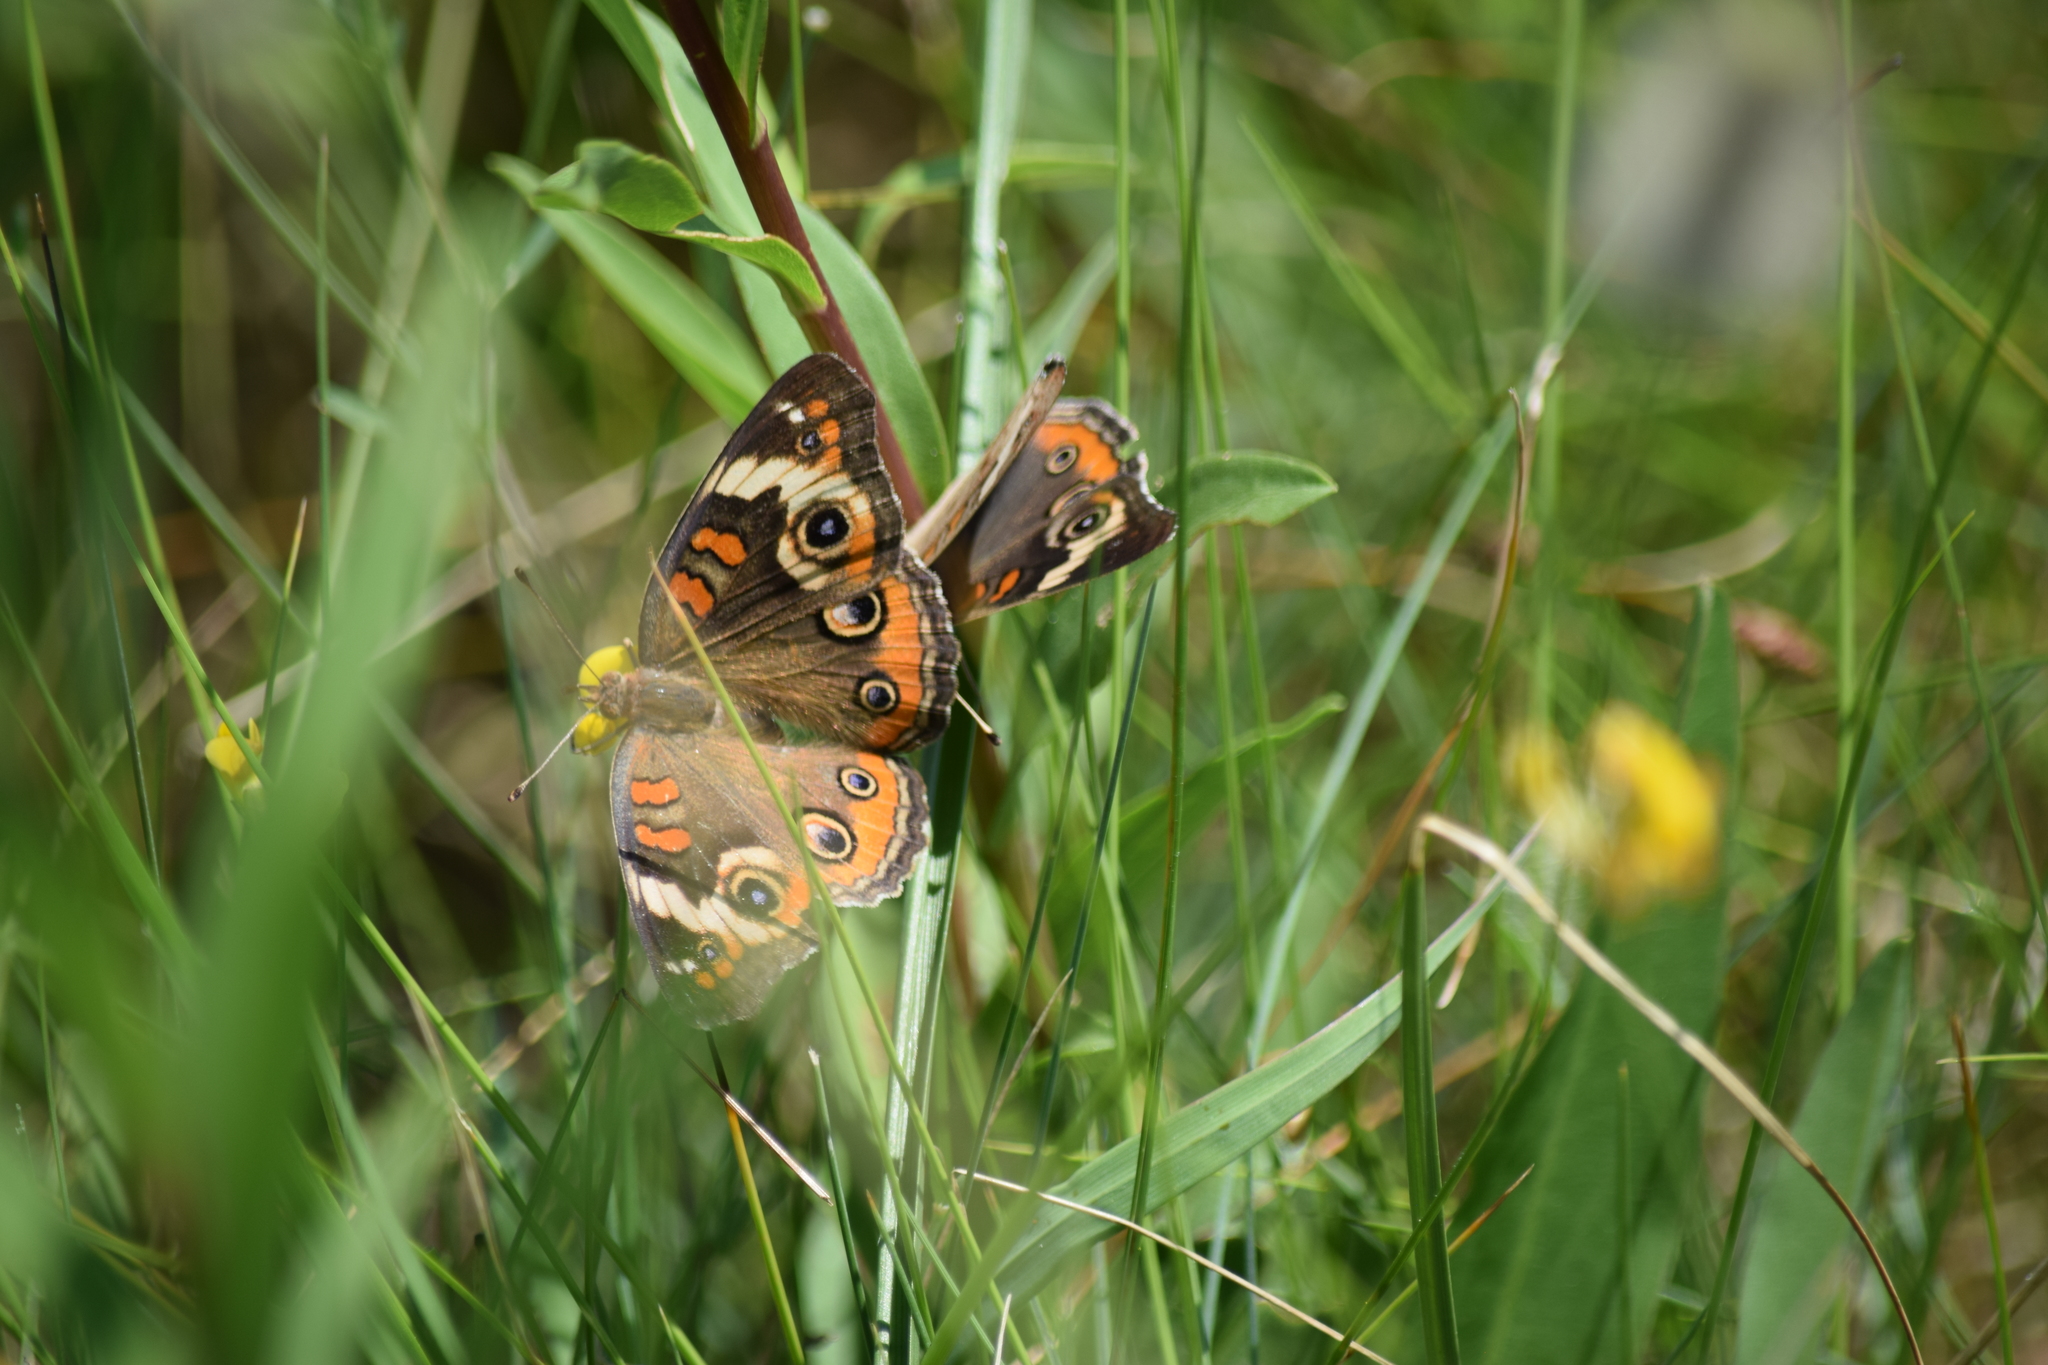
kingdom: Animalia
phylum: Arthropoda
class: Insecta
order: Lepidoptera
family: Nymphalidae
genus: Junonia
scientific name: Junonia coenia
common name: Common buckeye
